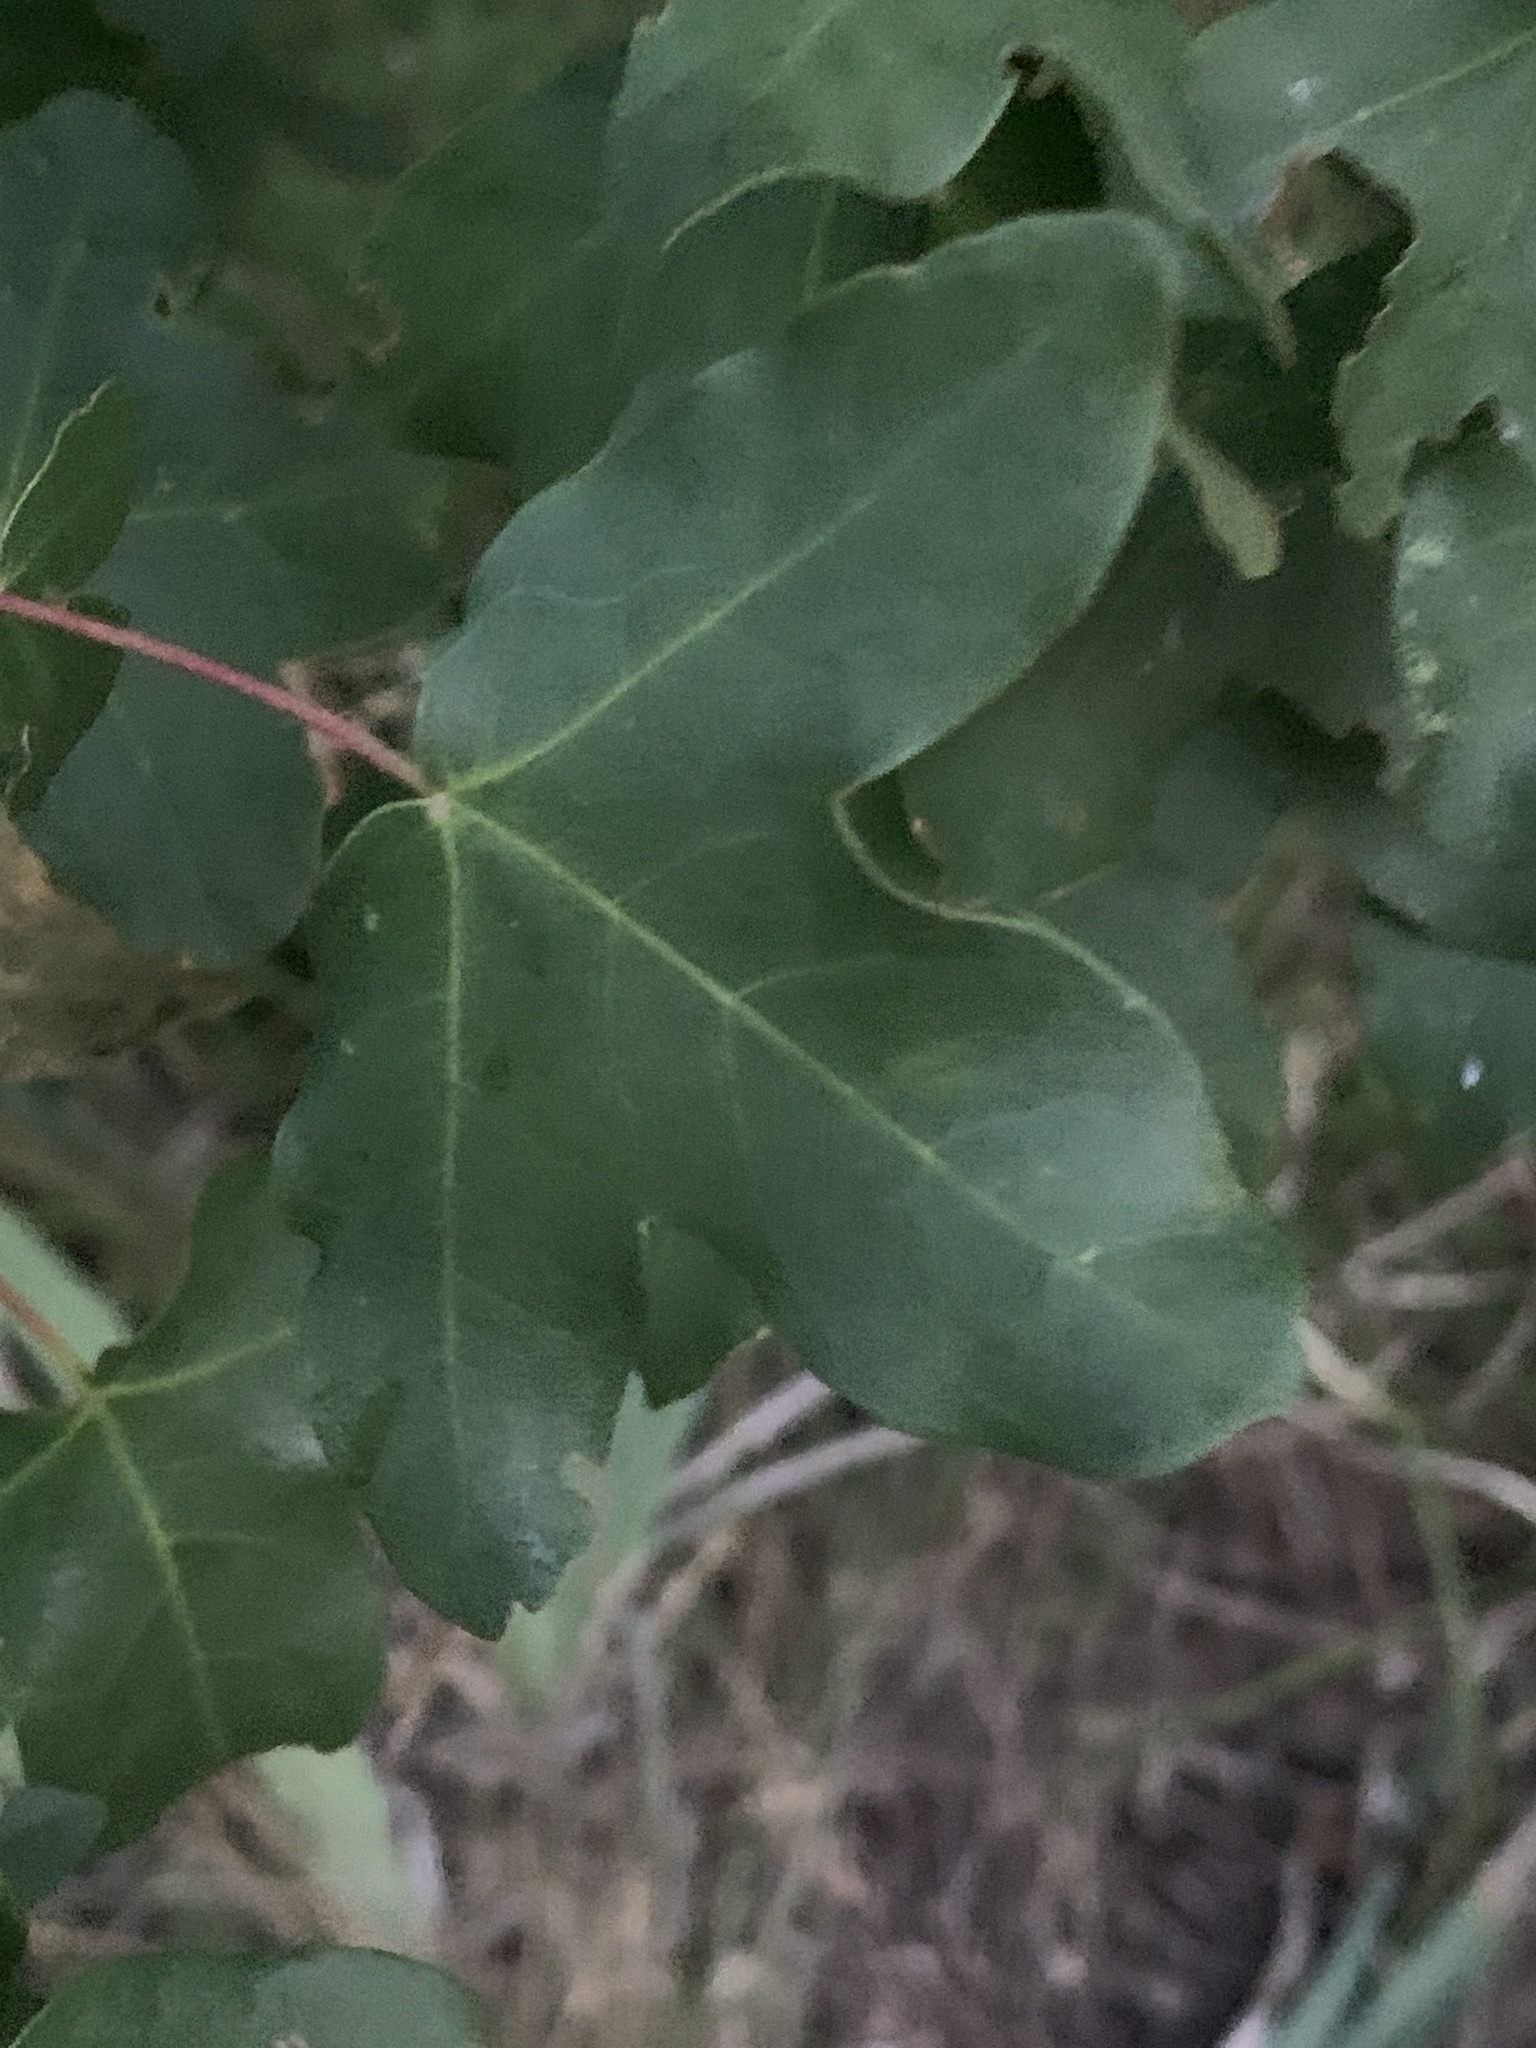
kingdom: Plantae
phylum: Tracheophyta
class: Magnoliopsida
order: Sapindales
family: Sapindaceae
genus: Acer
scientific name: Acer monspessulanum
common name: Montpellier maple
